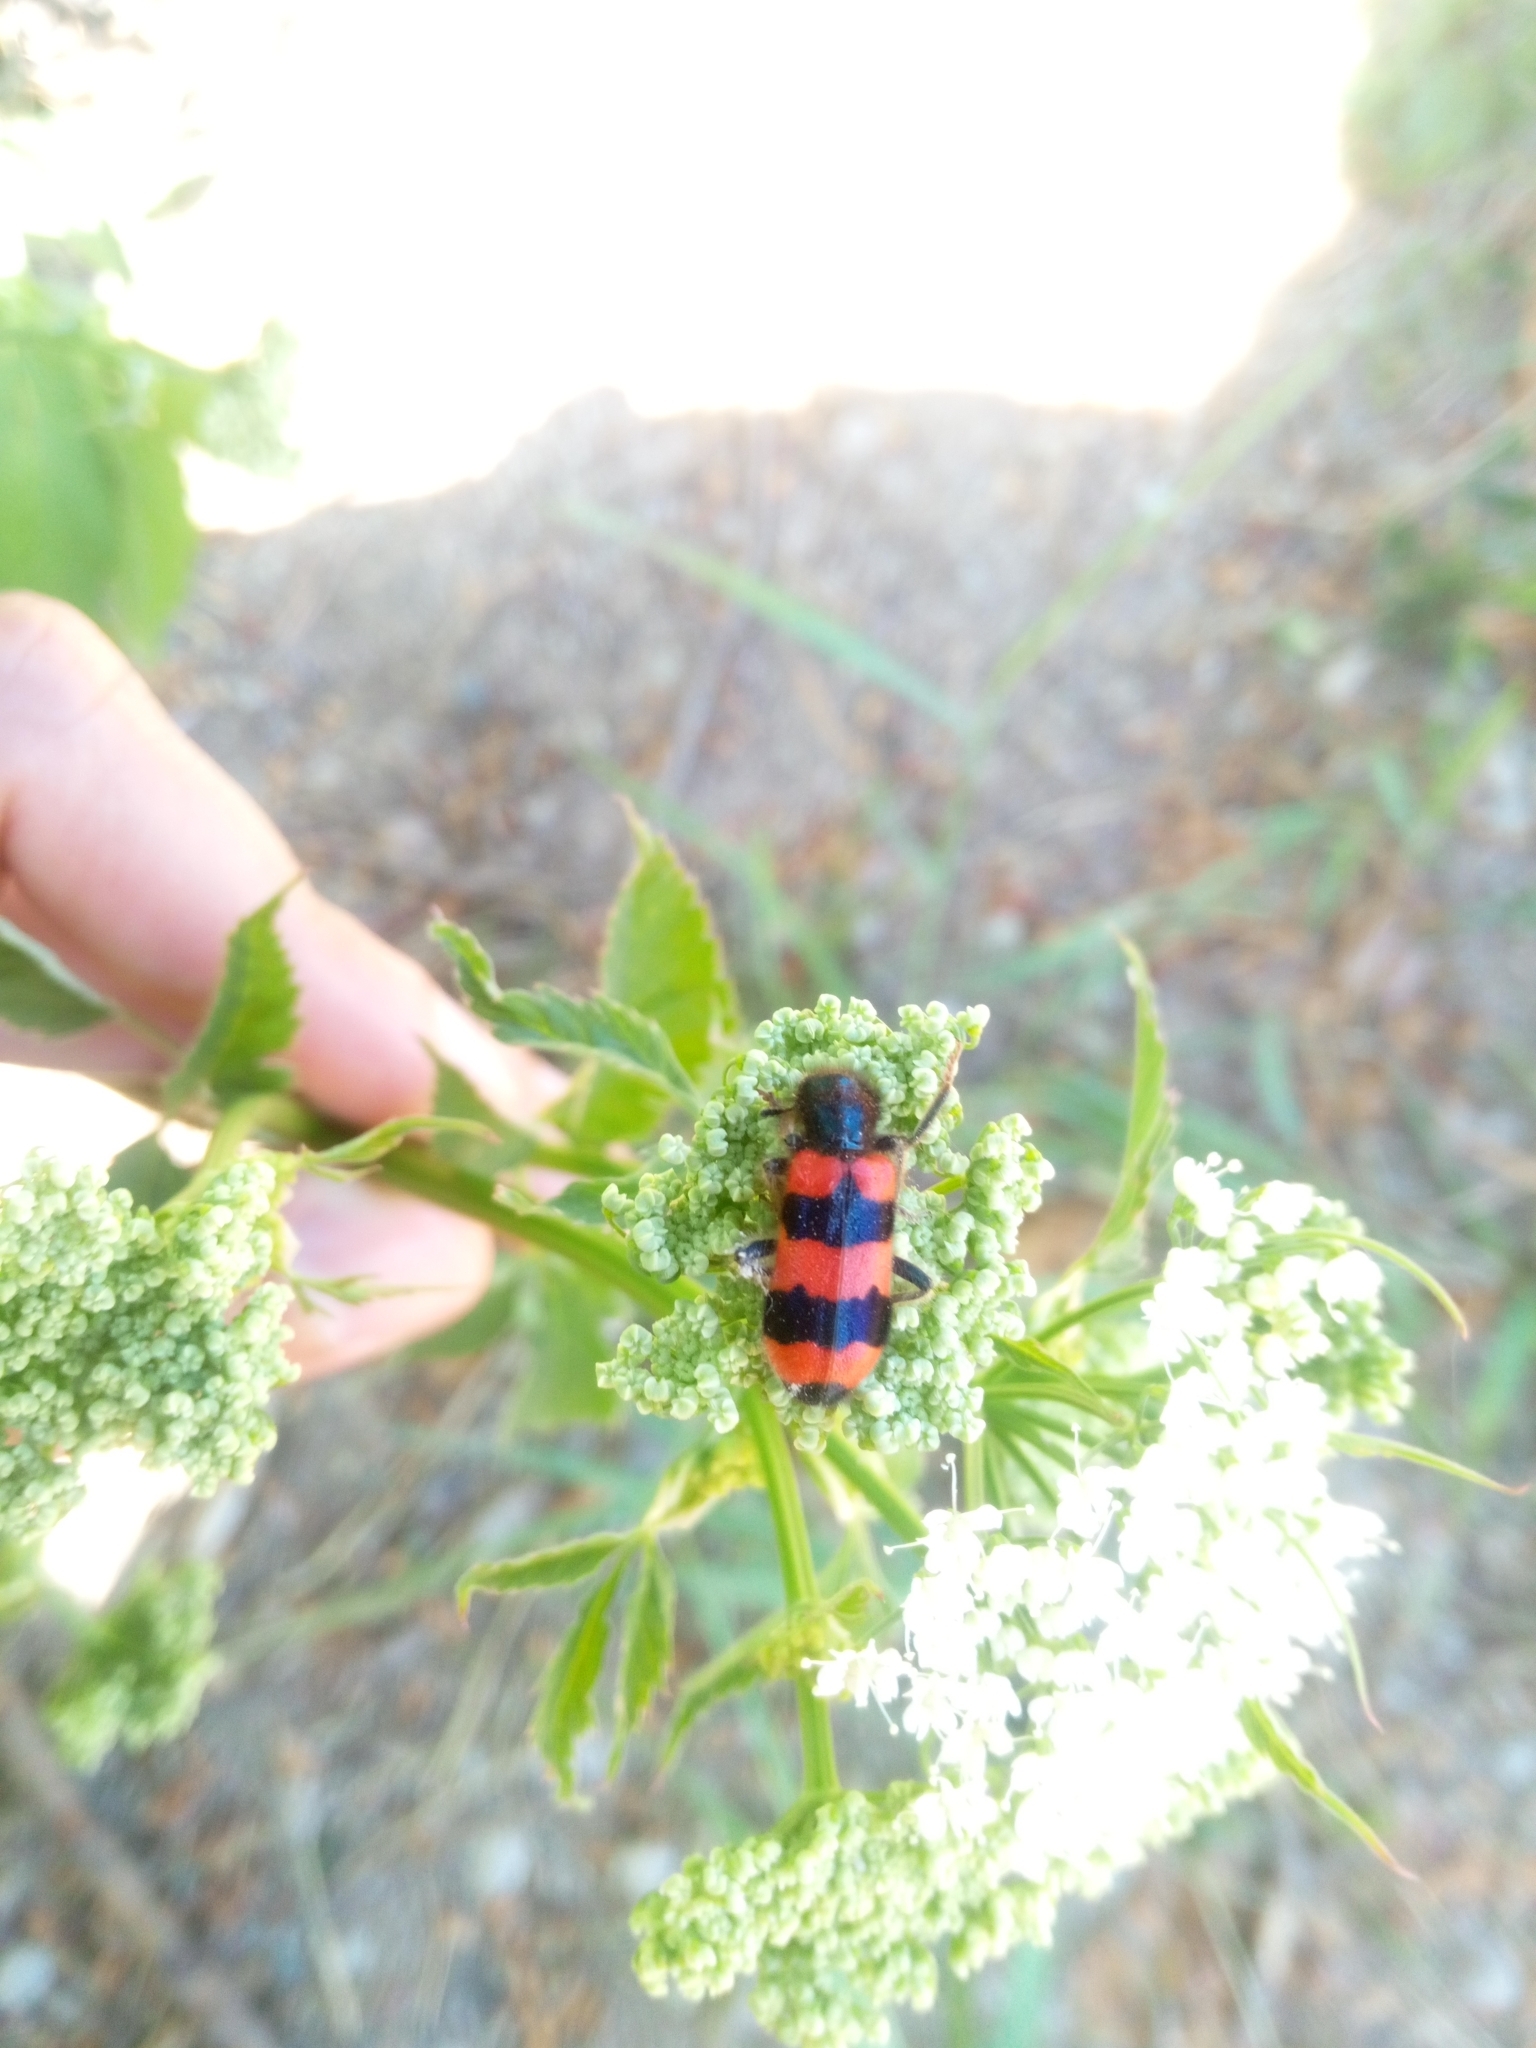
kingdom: Animalia
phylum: Arthropoda
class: Insecta
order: Coleoptera
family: Cleridae
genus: Trichodes
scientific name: Trichodes apiarius
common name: Bee-eating beetle
